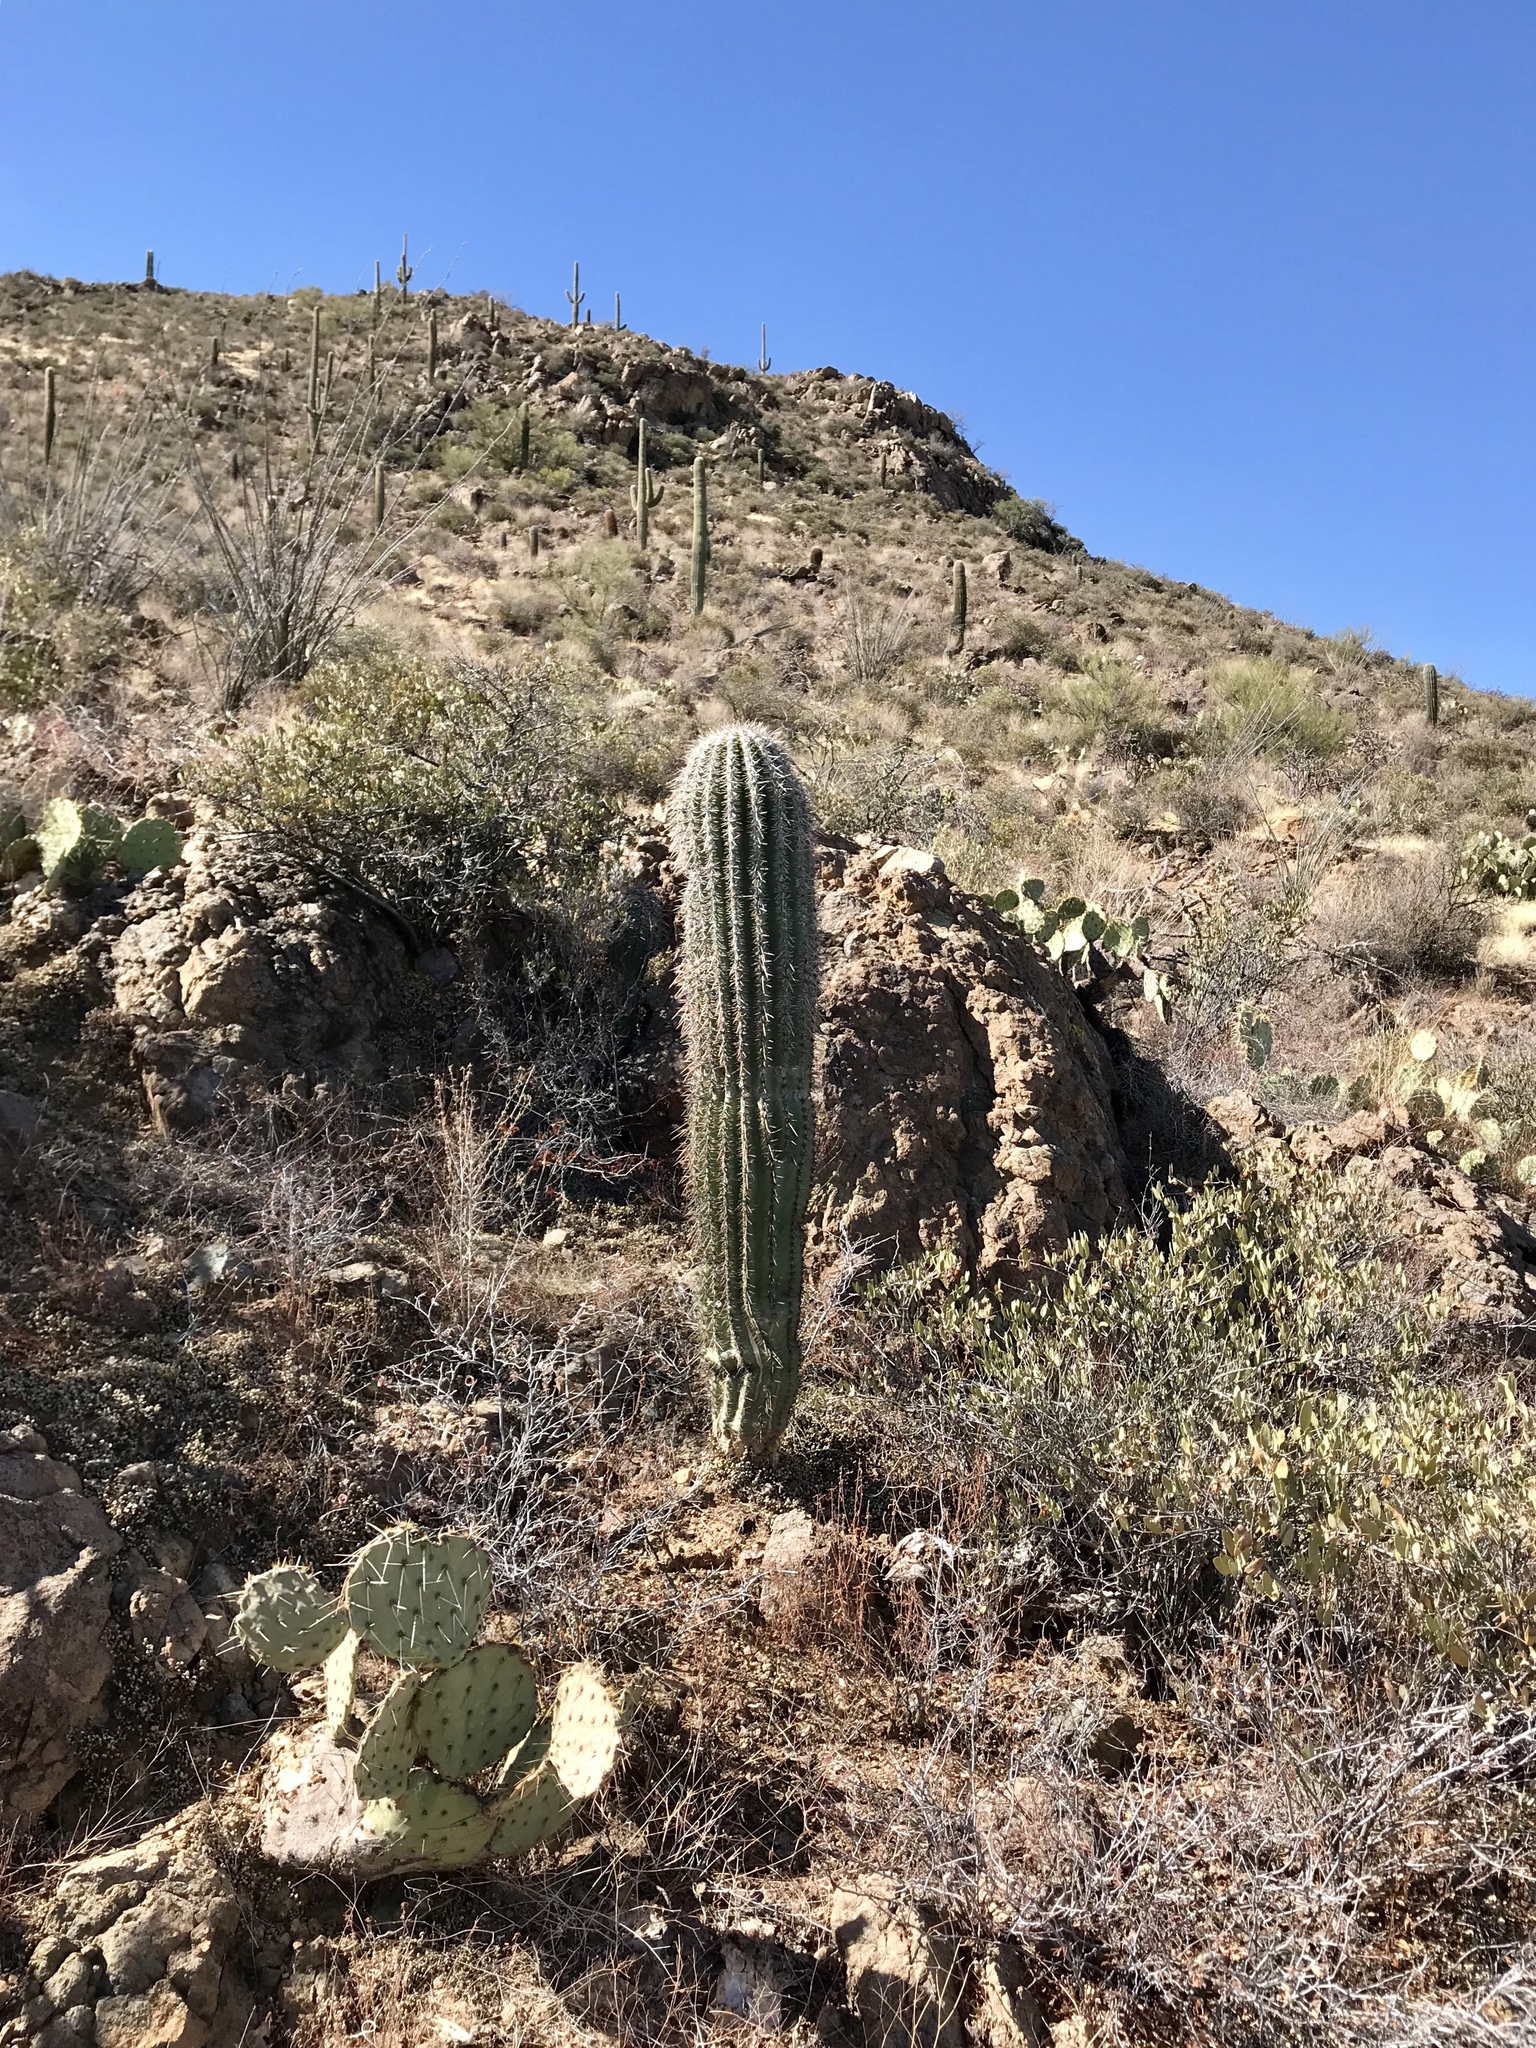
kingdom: Plantae
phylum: Tracheophyta
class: Magnoliopsida
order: Caryophyllales
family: Cactaceae
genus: Carnegiea
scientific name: Carnegiea gigantea
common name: Saguaro
